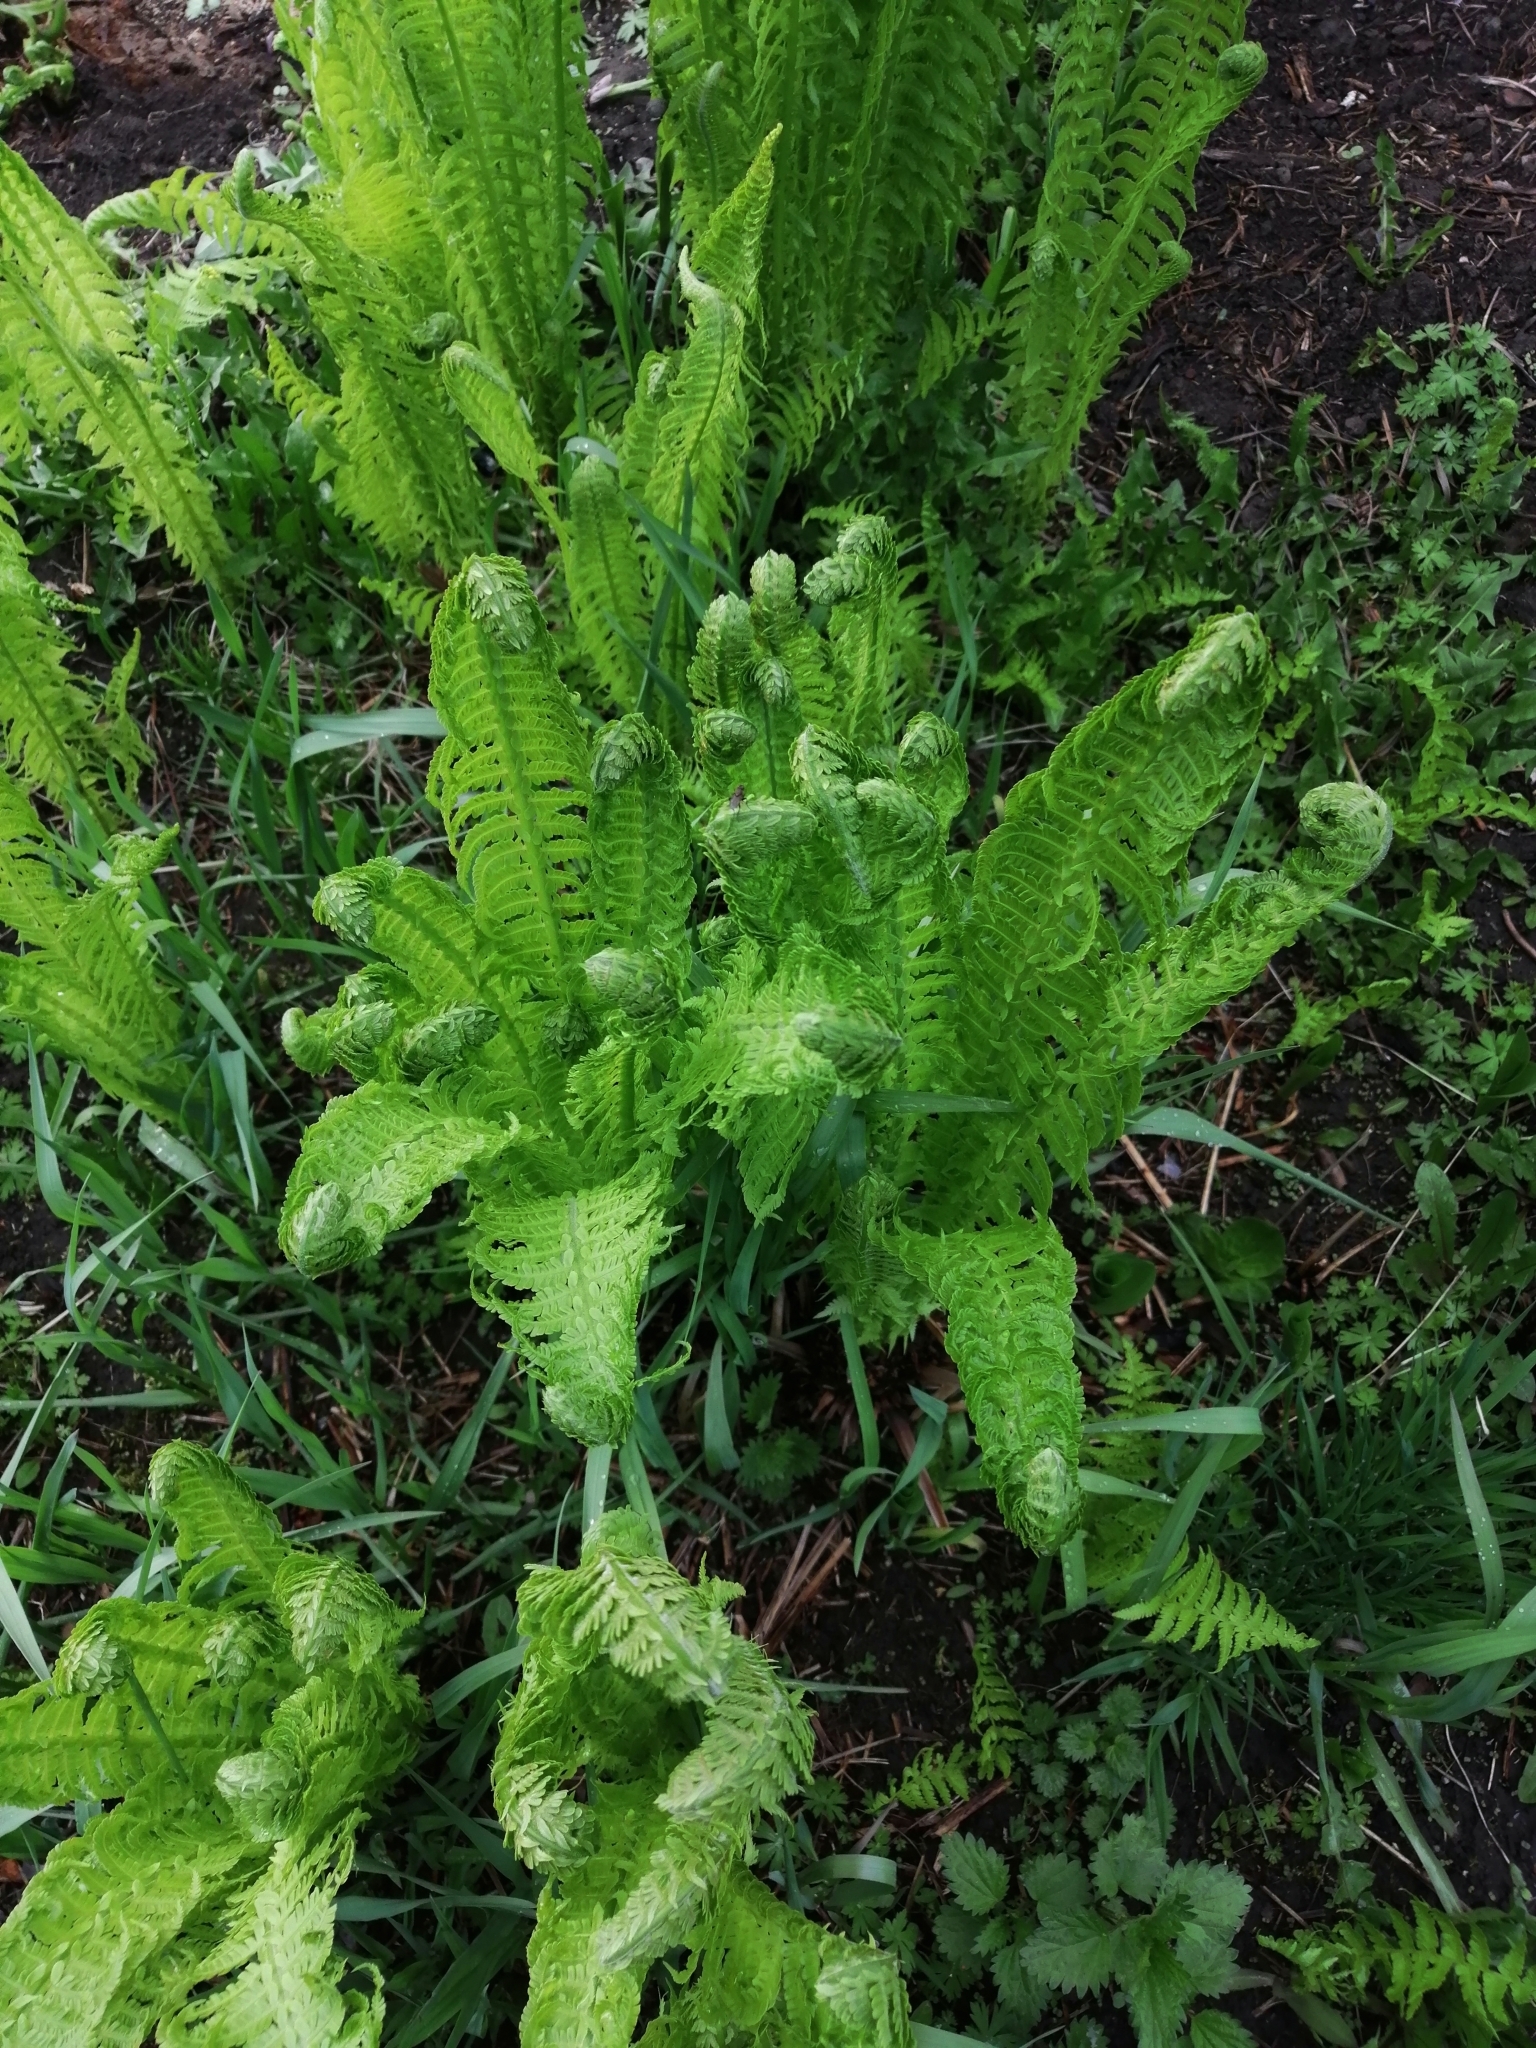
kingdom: Plantae
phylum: Tracheophyta
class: Polypodiopsida
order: Polypodiales
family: Onocleaceae
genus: Matteuccia
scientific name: Matteuccia struthiopteris
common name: Ostrich fern
